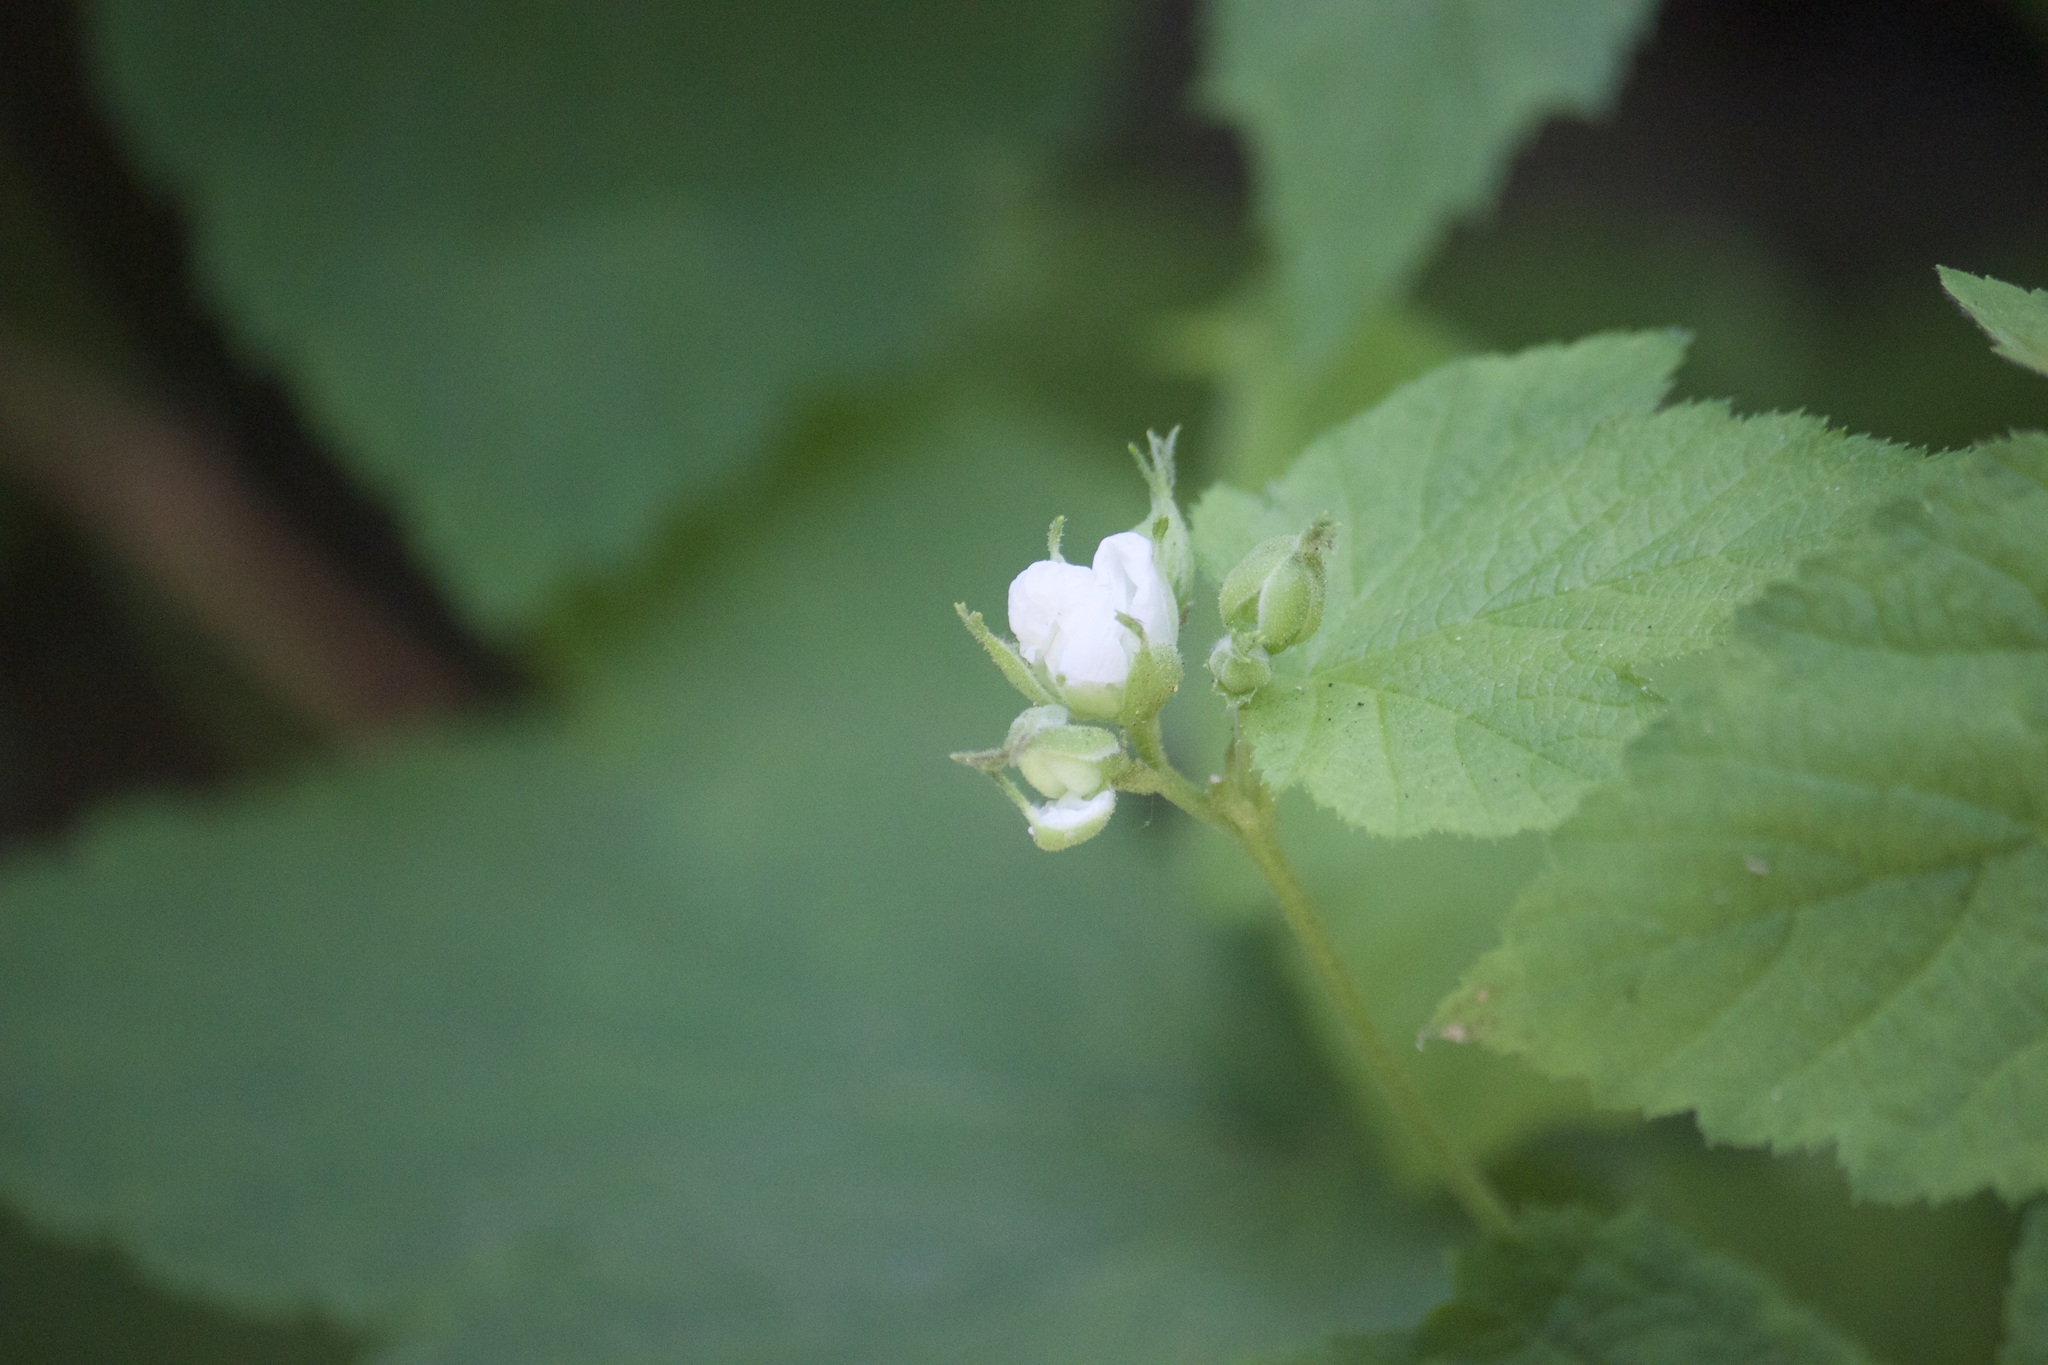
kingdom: Plantae
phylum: Tracheophyta
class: Magnoliopsida
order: Rosales
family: Rosaceae
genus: Rubus
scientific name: Rubus parviflorus
